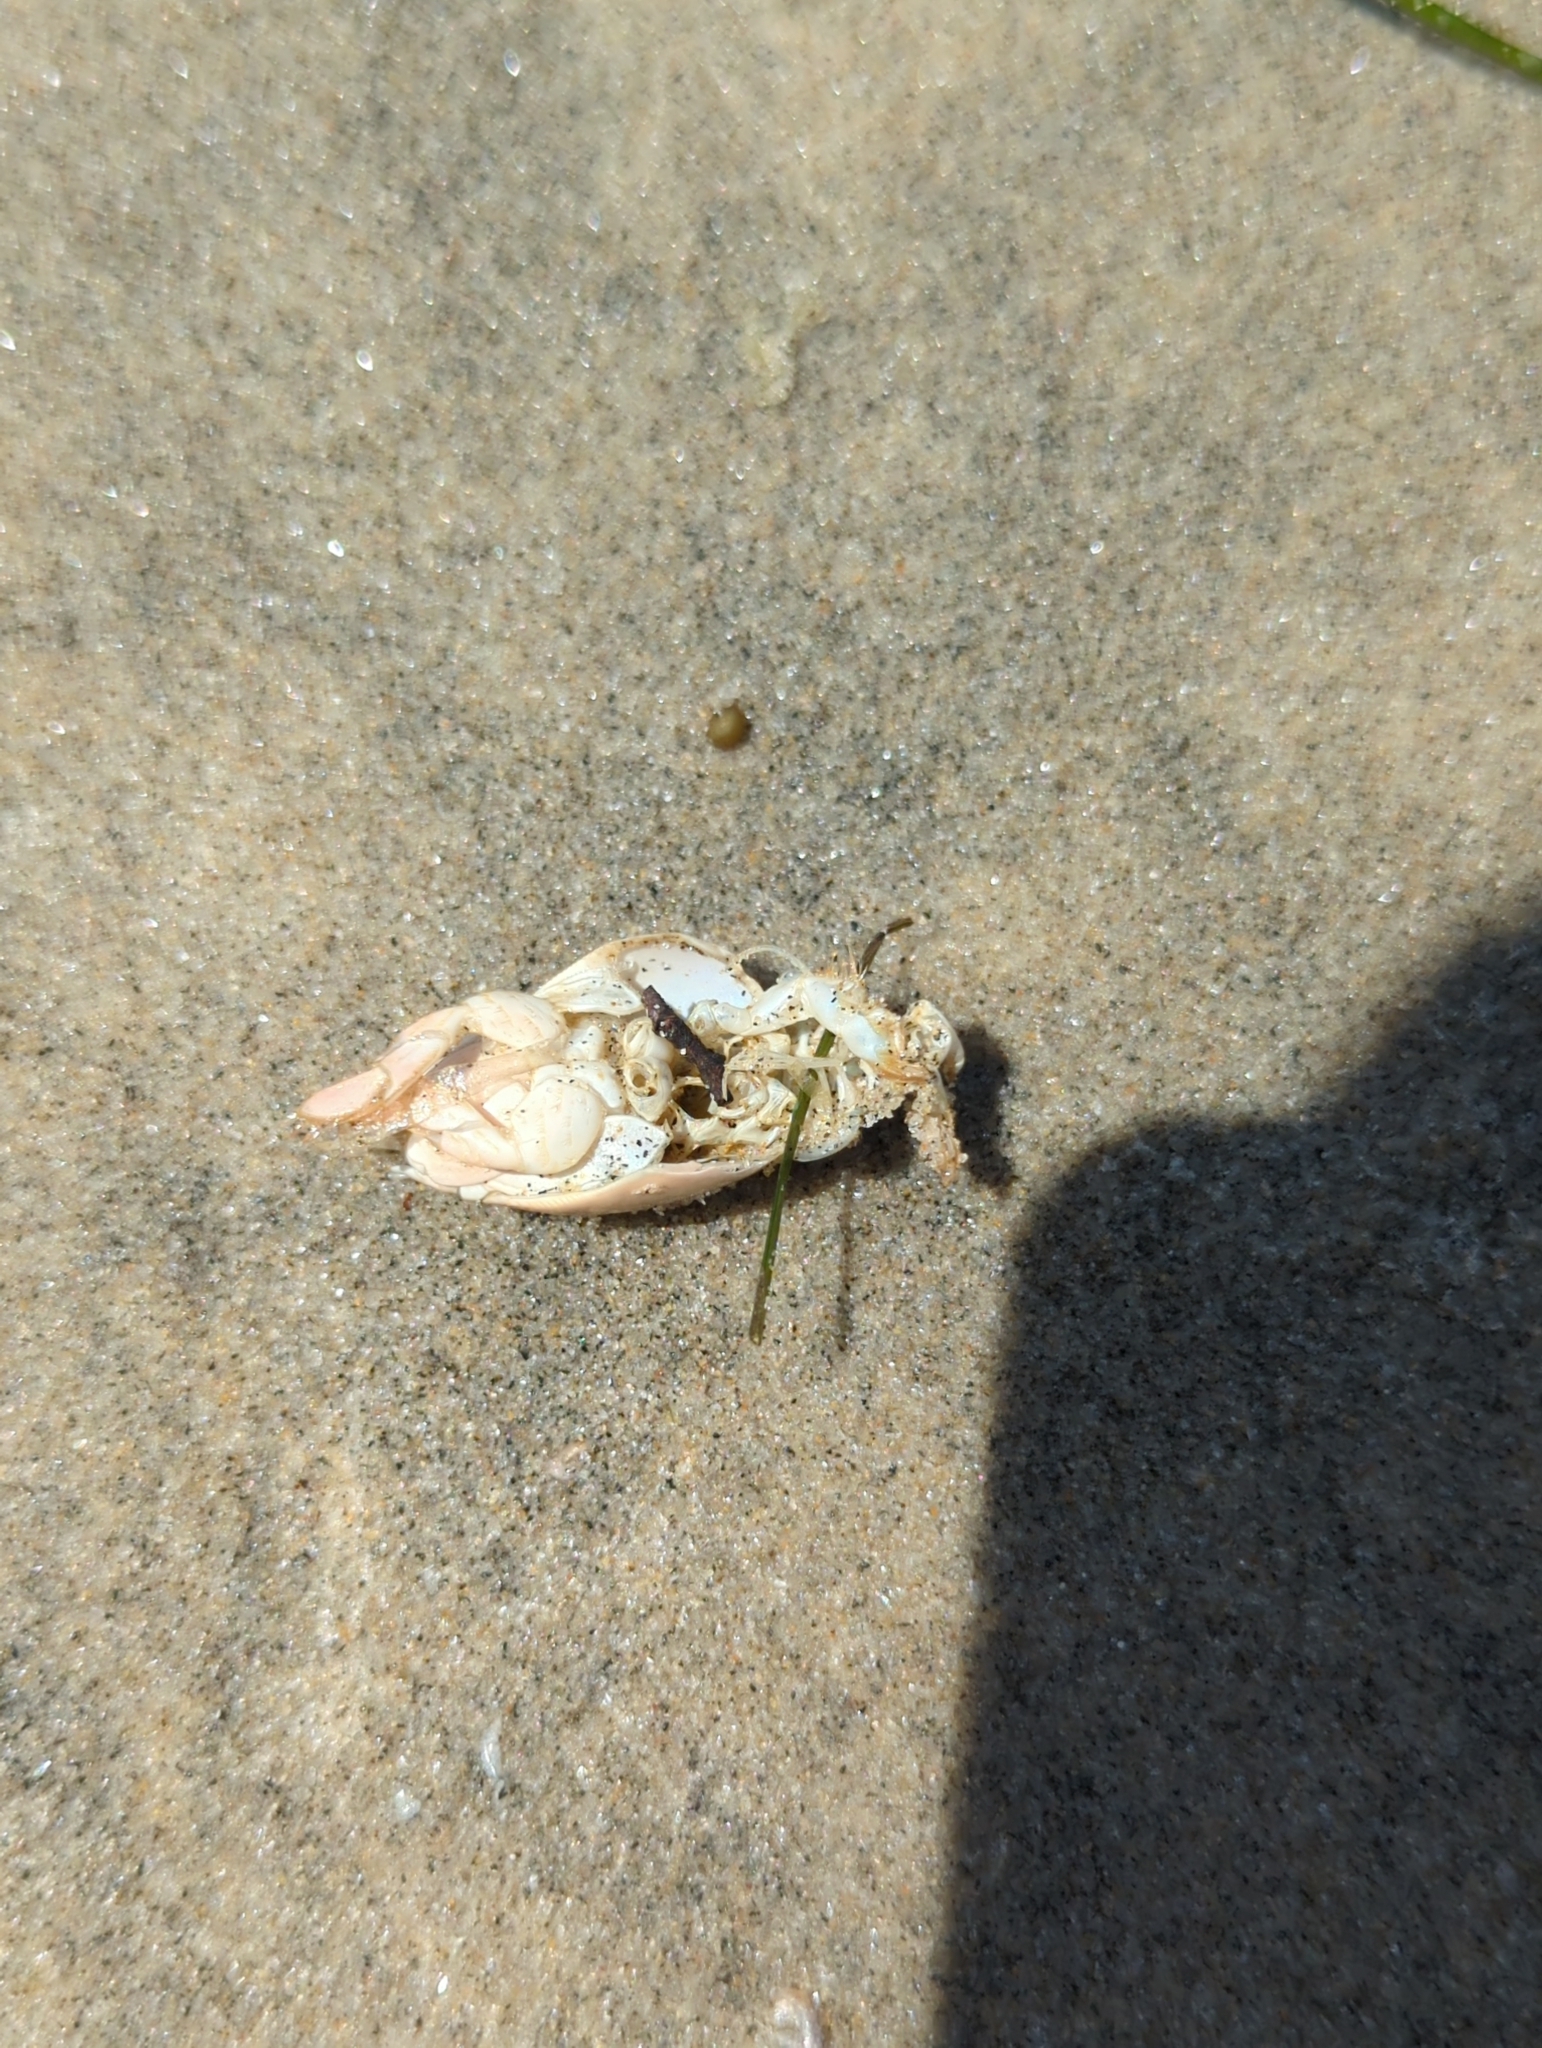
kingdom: Animalia
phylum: Arthropoda
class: Malacostraca
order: Decapoda
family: Hippidae
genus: Emerita
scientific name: Emerita analoga
